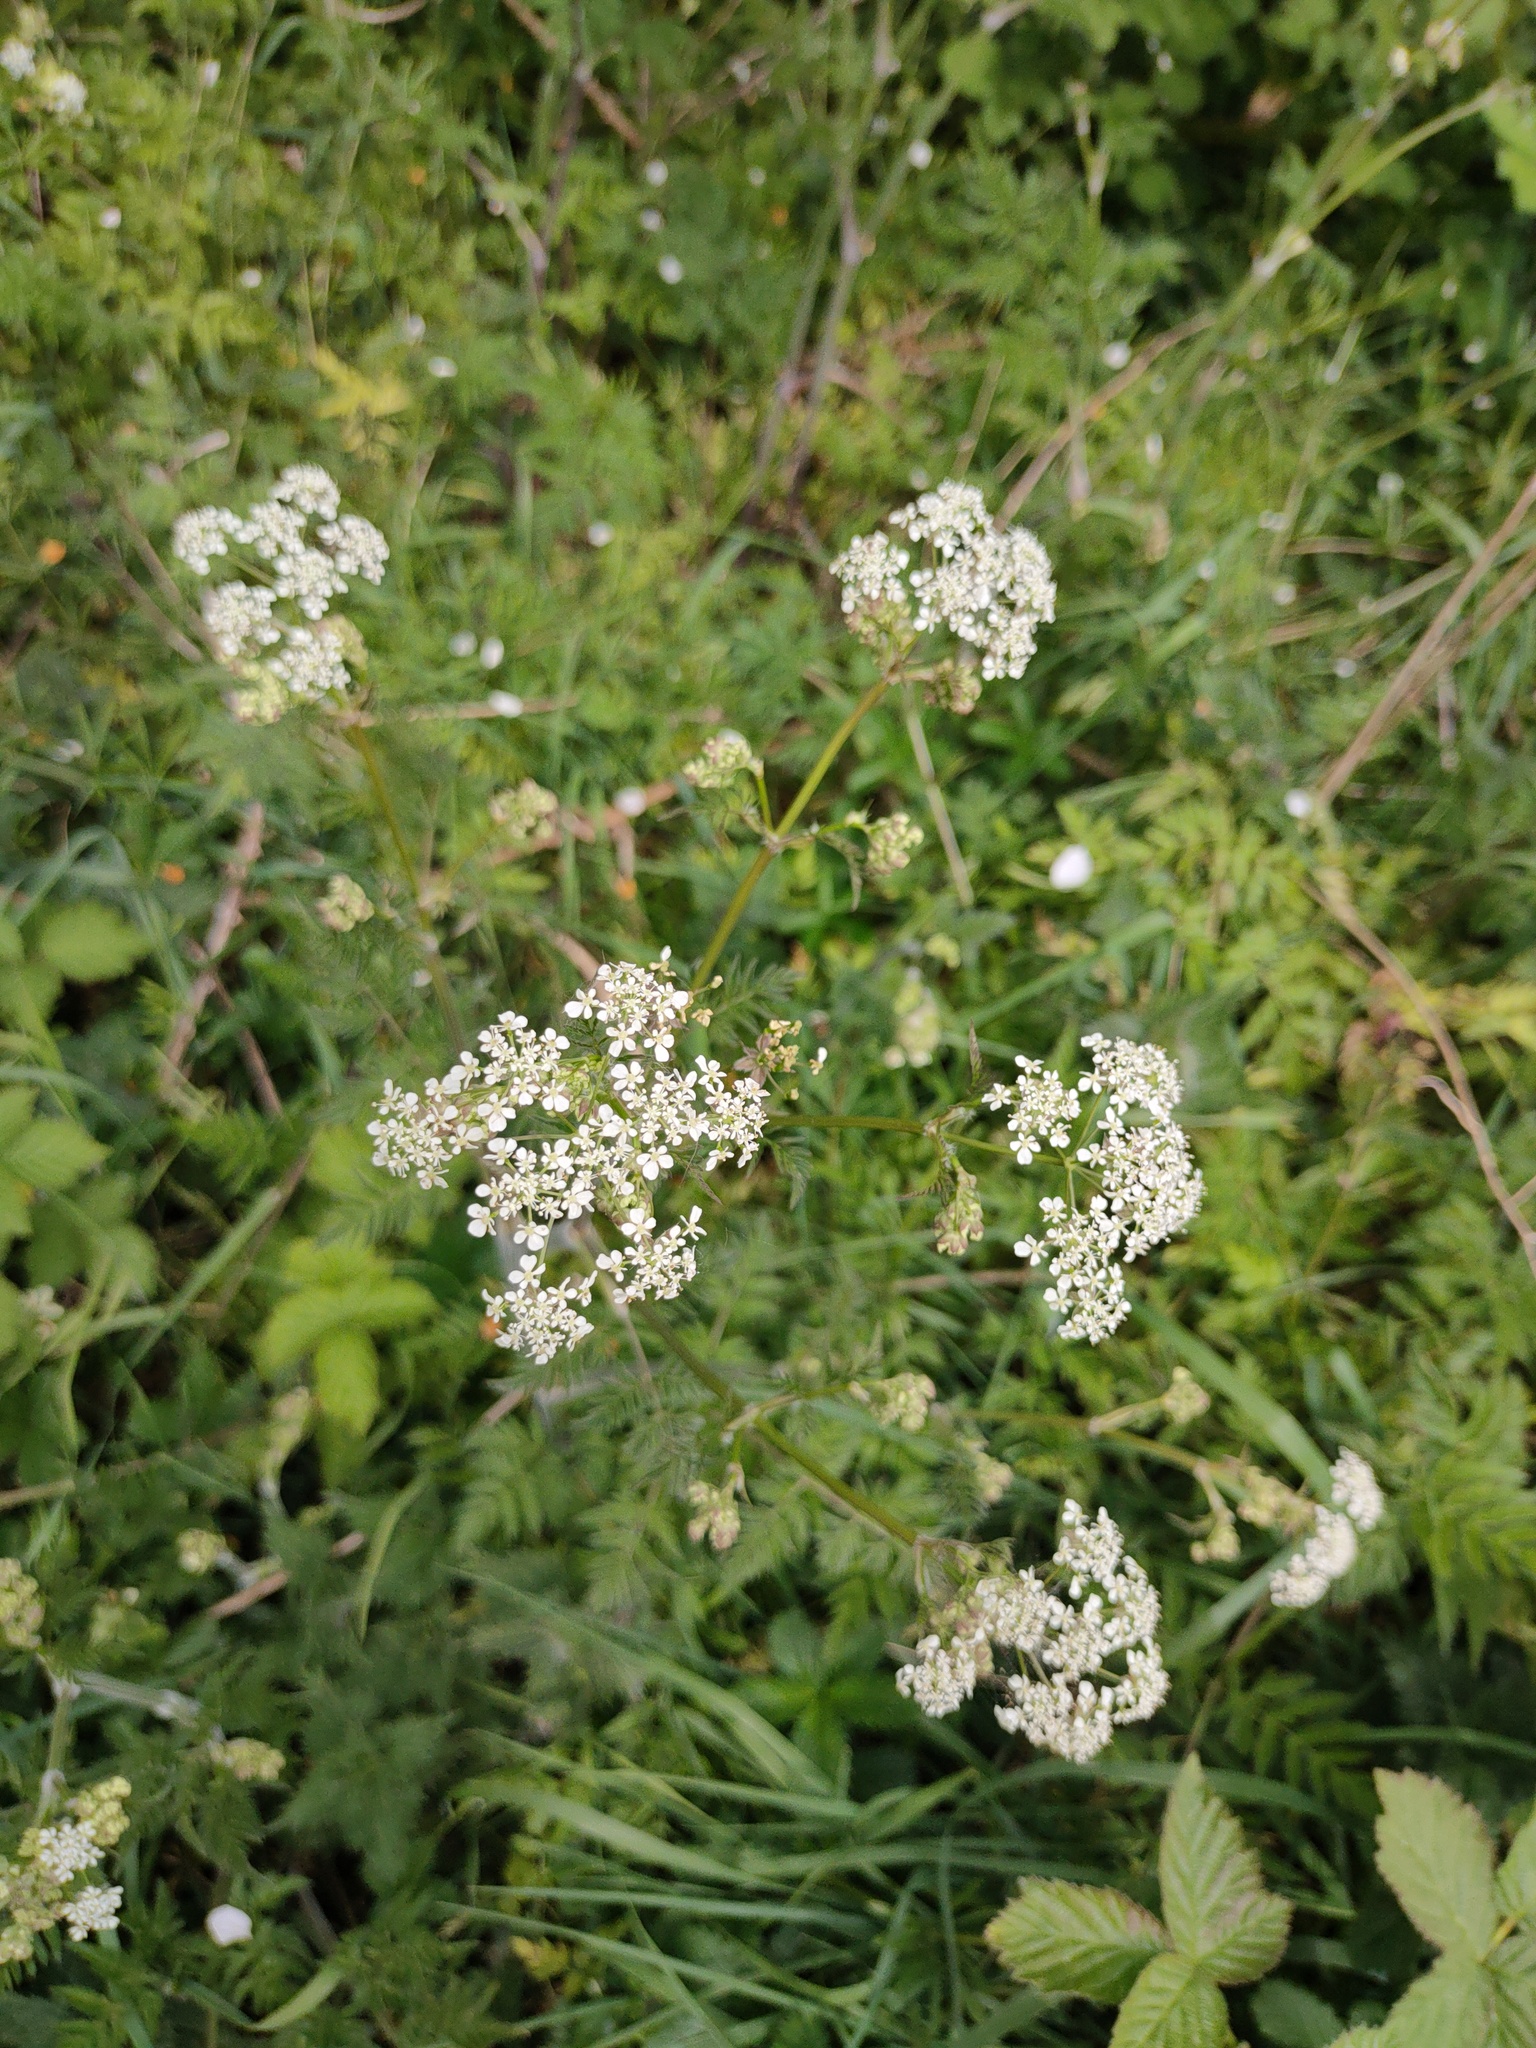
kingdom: Plantae
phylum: Tracheophyta
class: Magnoliopsida
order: Apiales
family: Apiaceae
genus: Anthriscus
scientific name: Anthriscus sylvestris
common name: Cow parsley
